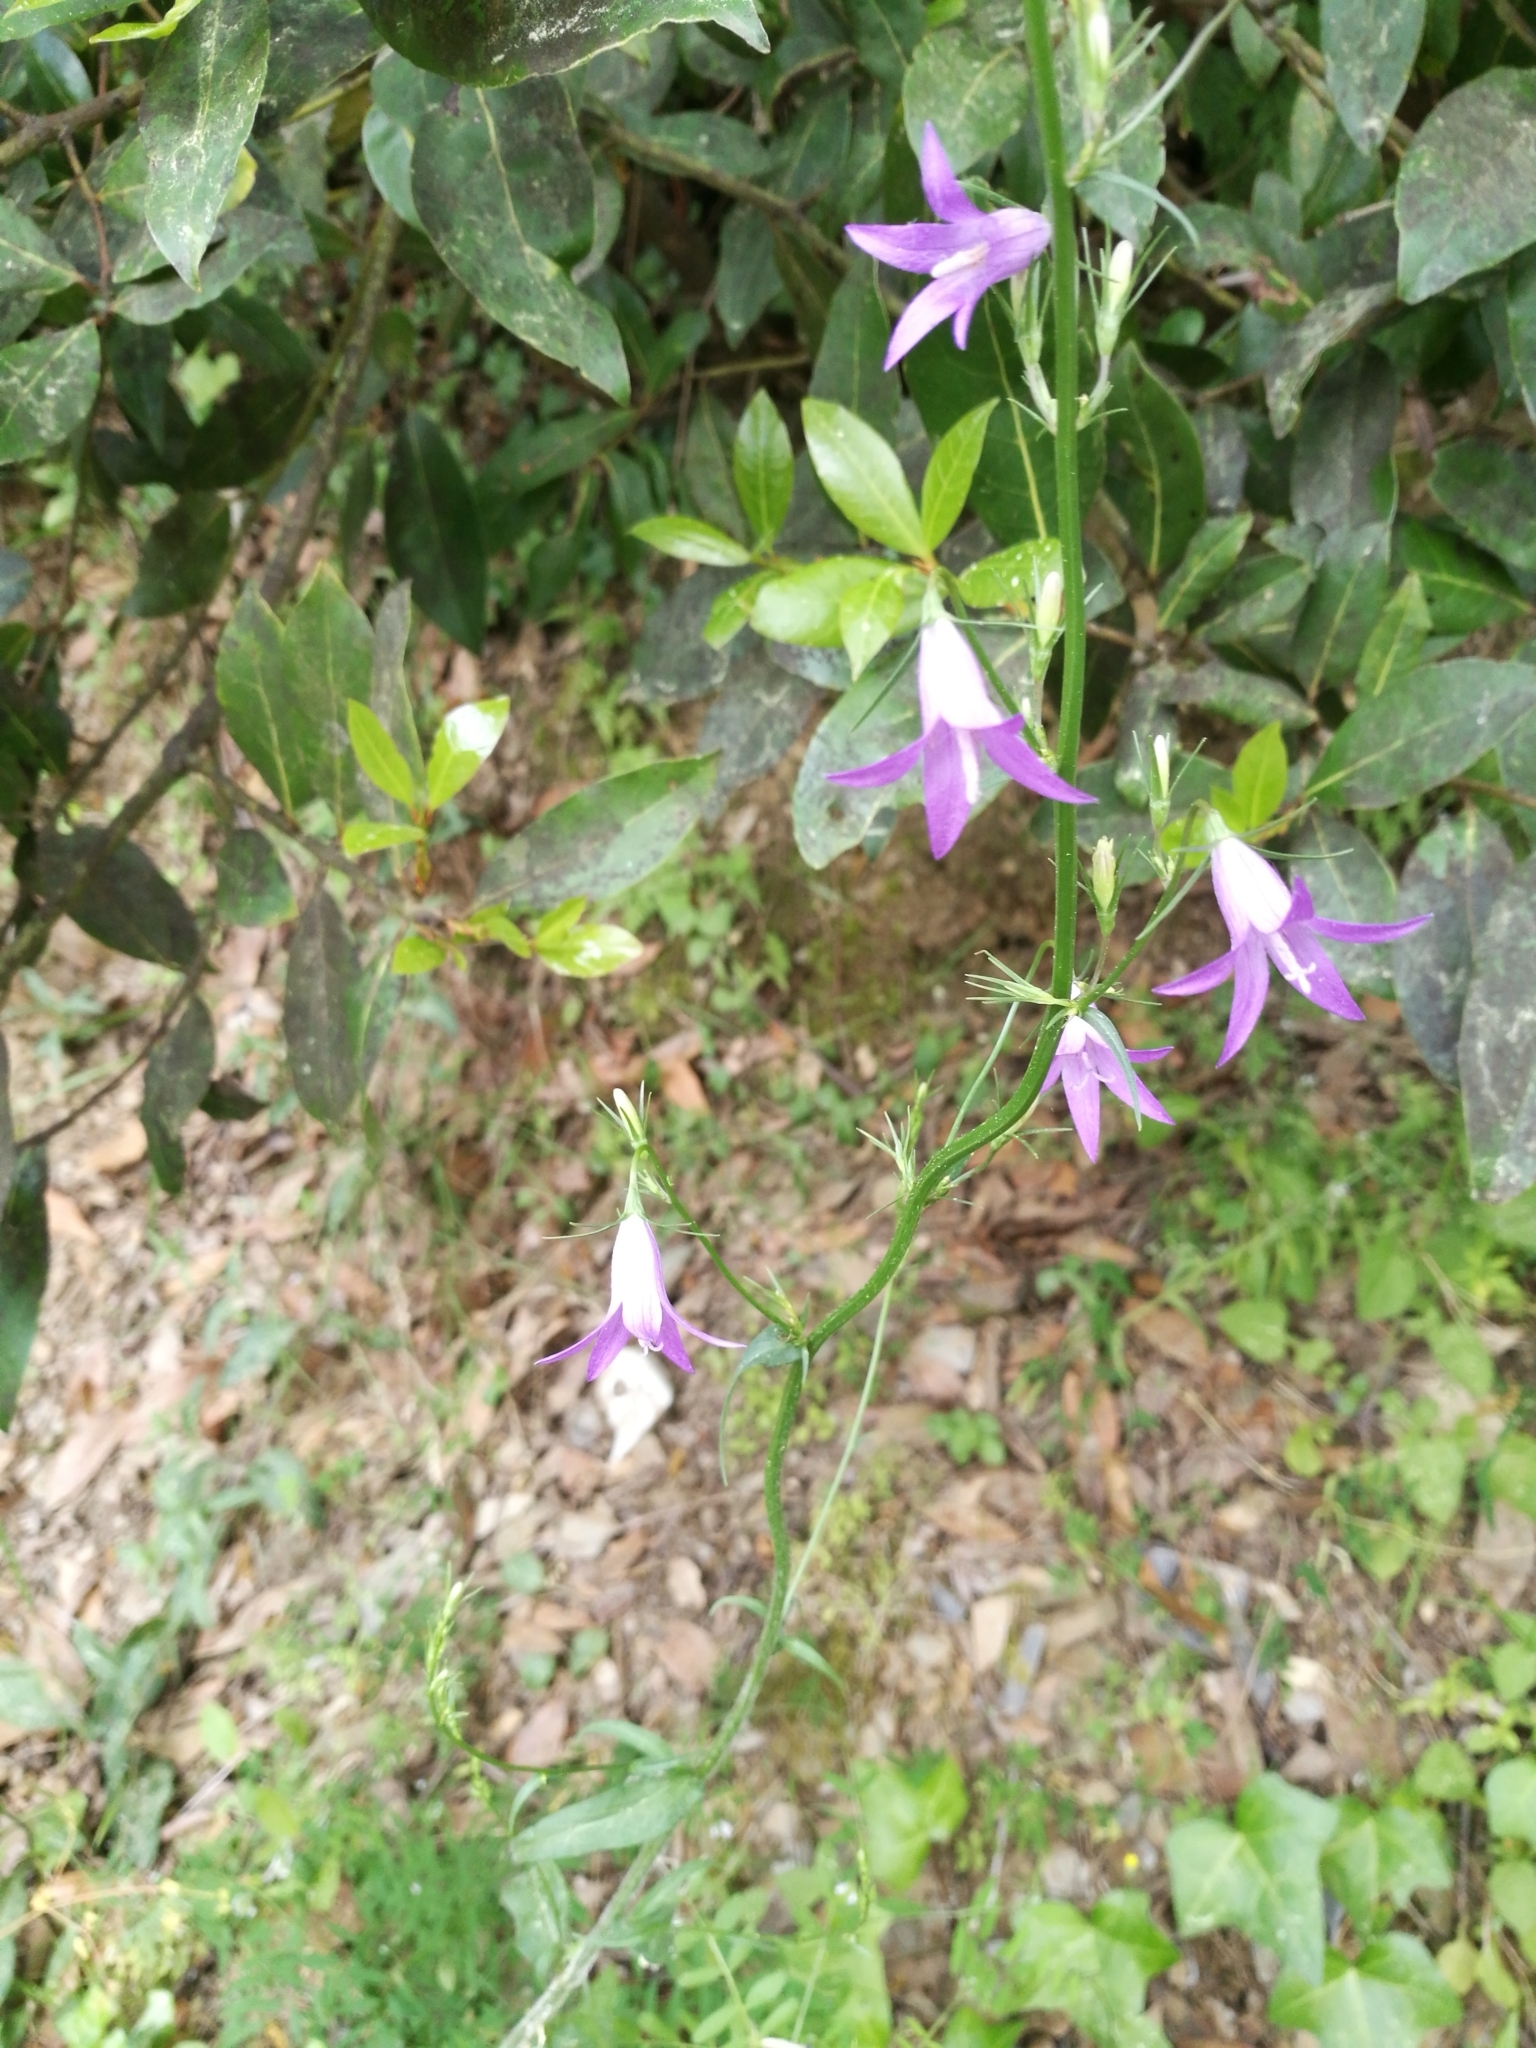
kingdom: Plantae
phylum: Tracheophyta
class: Magnoliopsida
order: Asterales
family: Campanulaceae
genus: Campanula
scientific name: Campanula rapunculus
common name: Rampion bellflower
